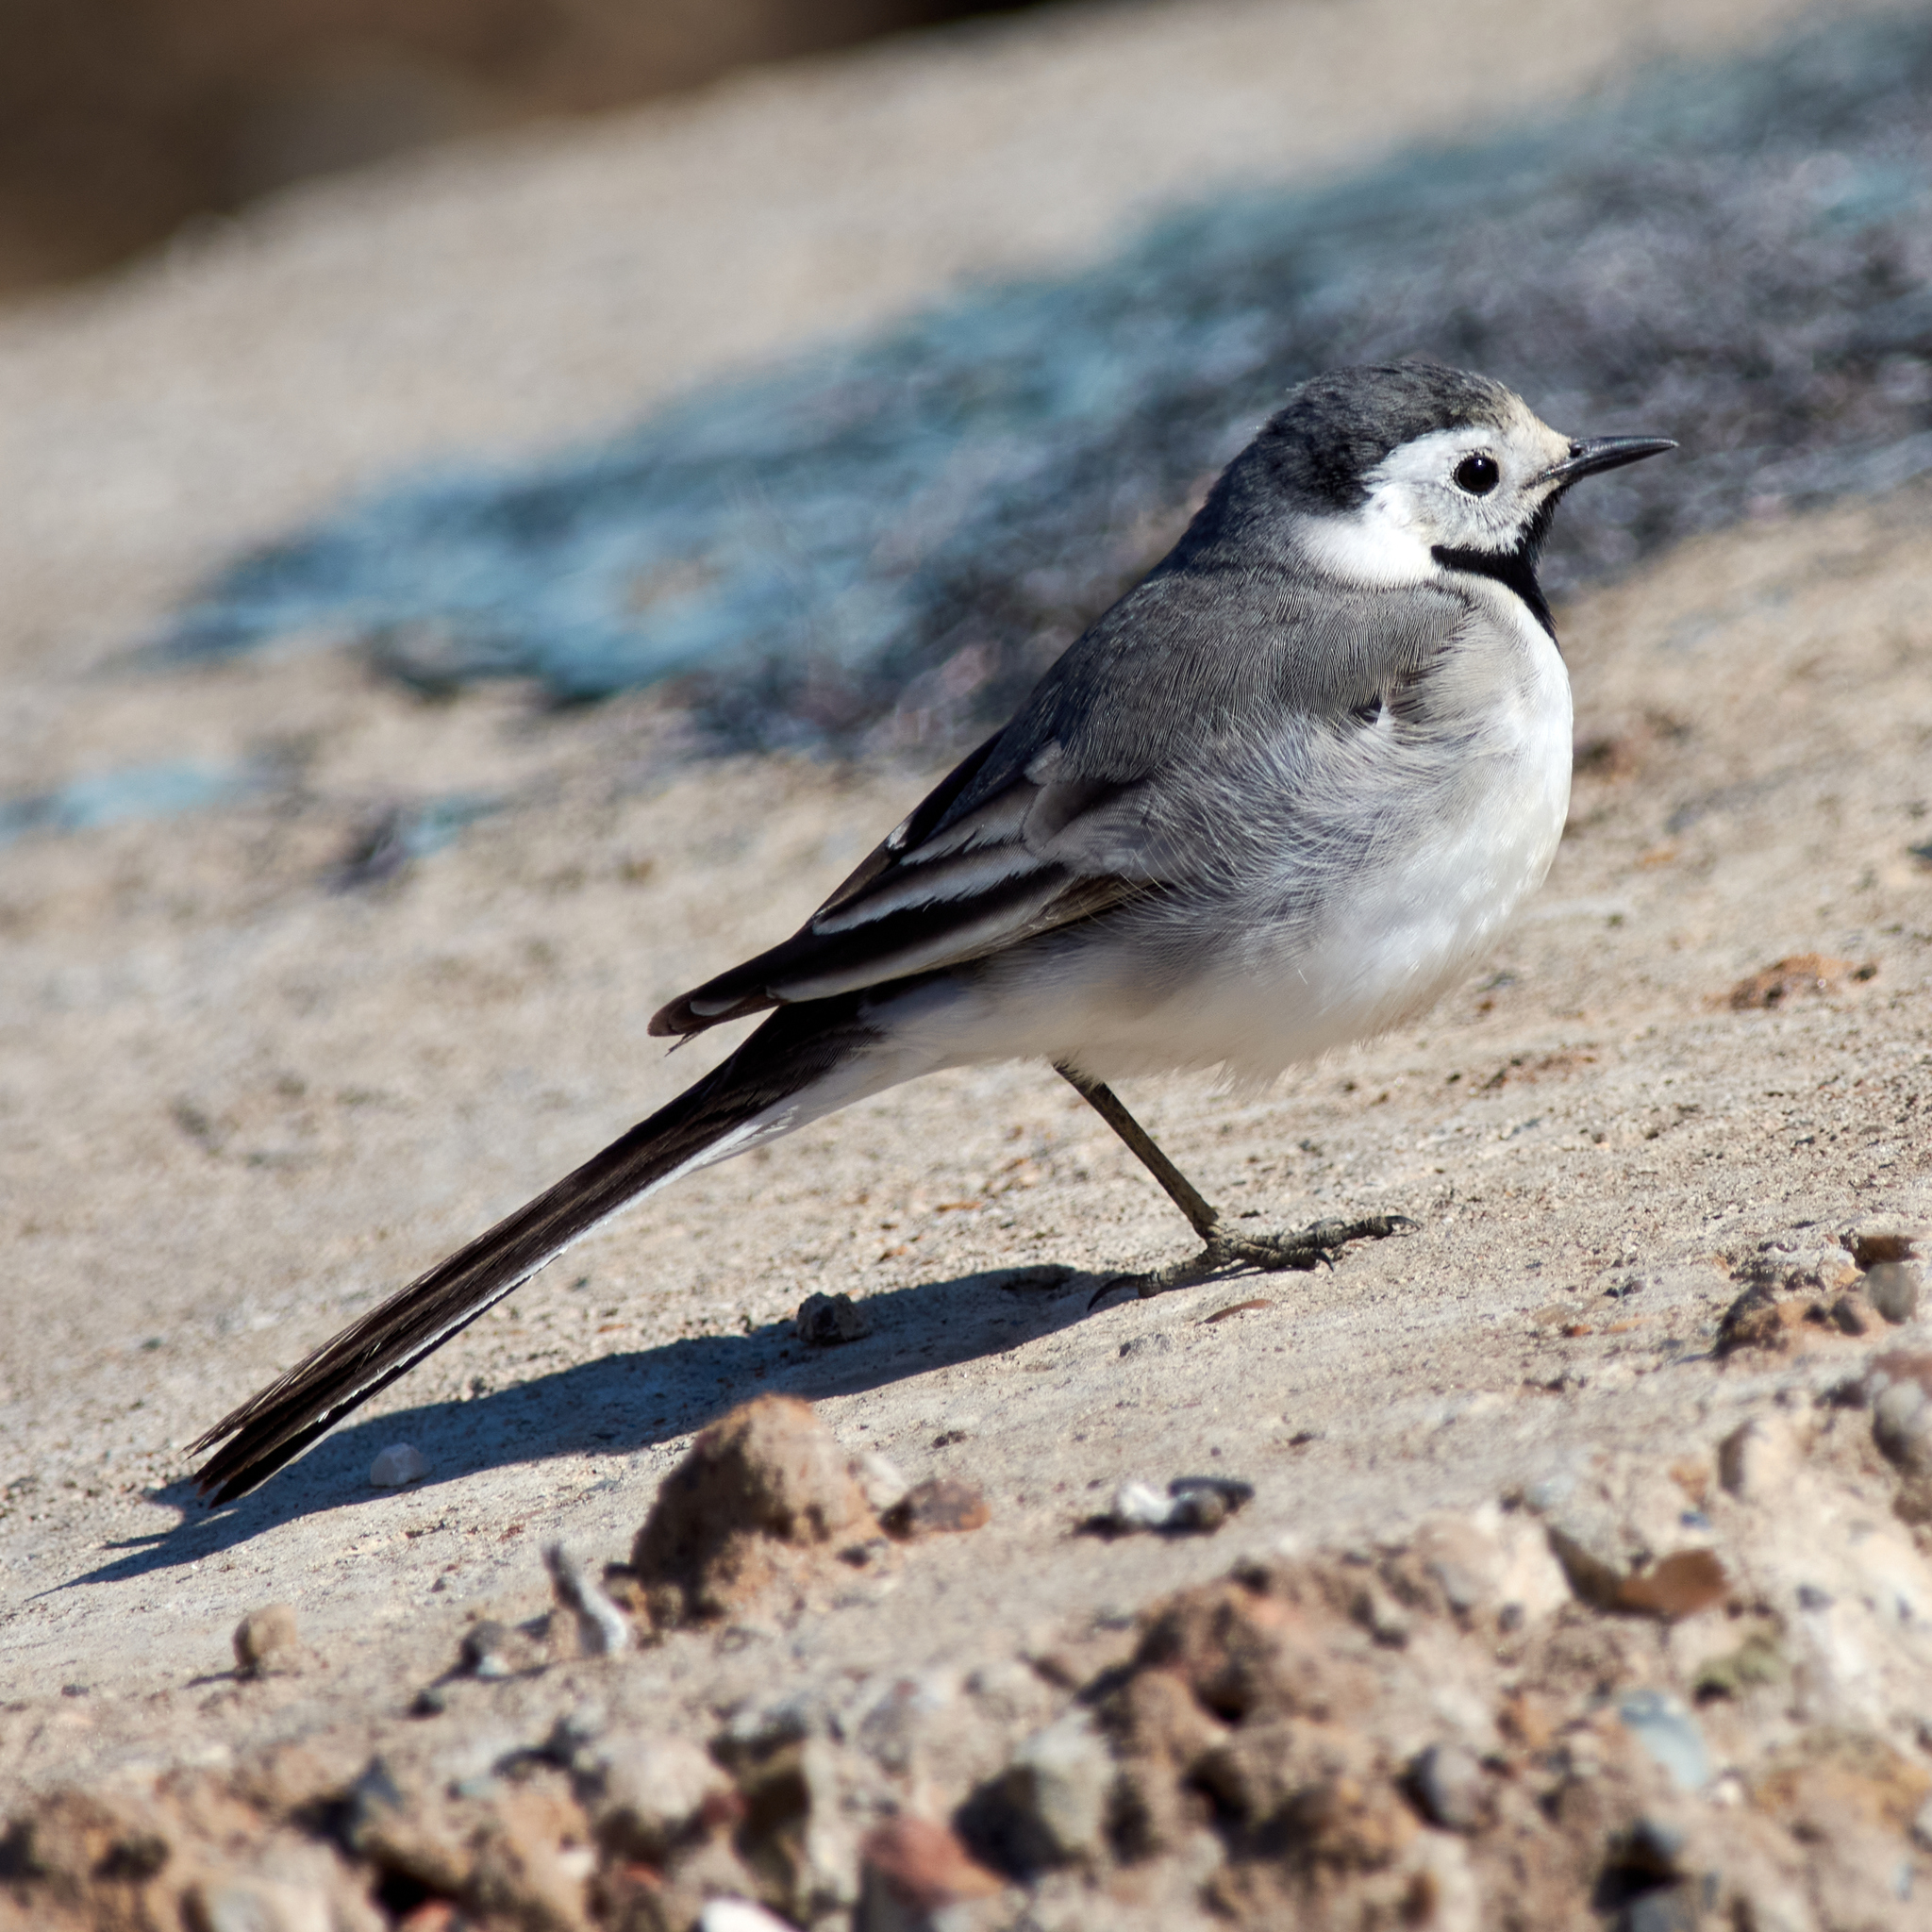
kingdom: Animalia
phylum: Chordata
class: Aves
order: Passeriformes
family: Motacillidae
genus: Motacilla
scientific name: Motacilla alba
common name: White wagtail
